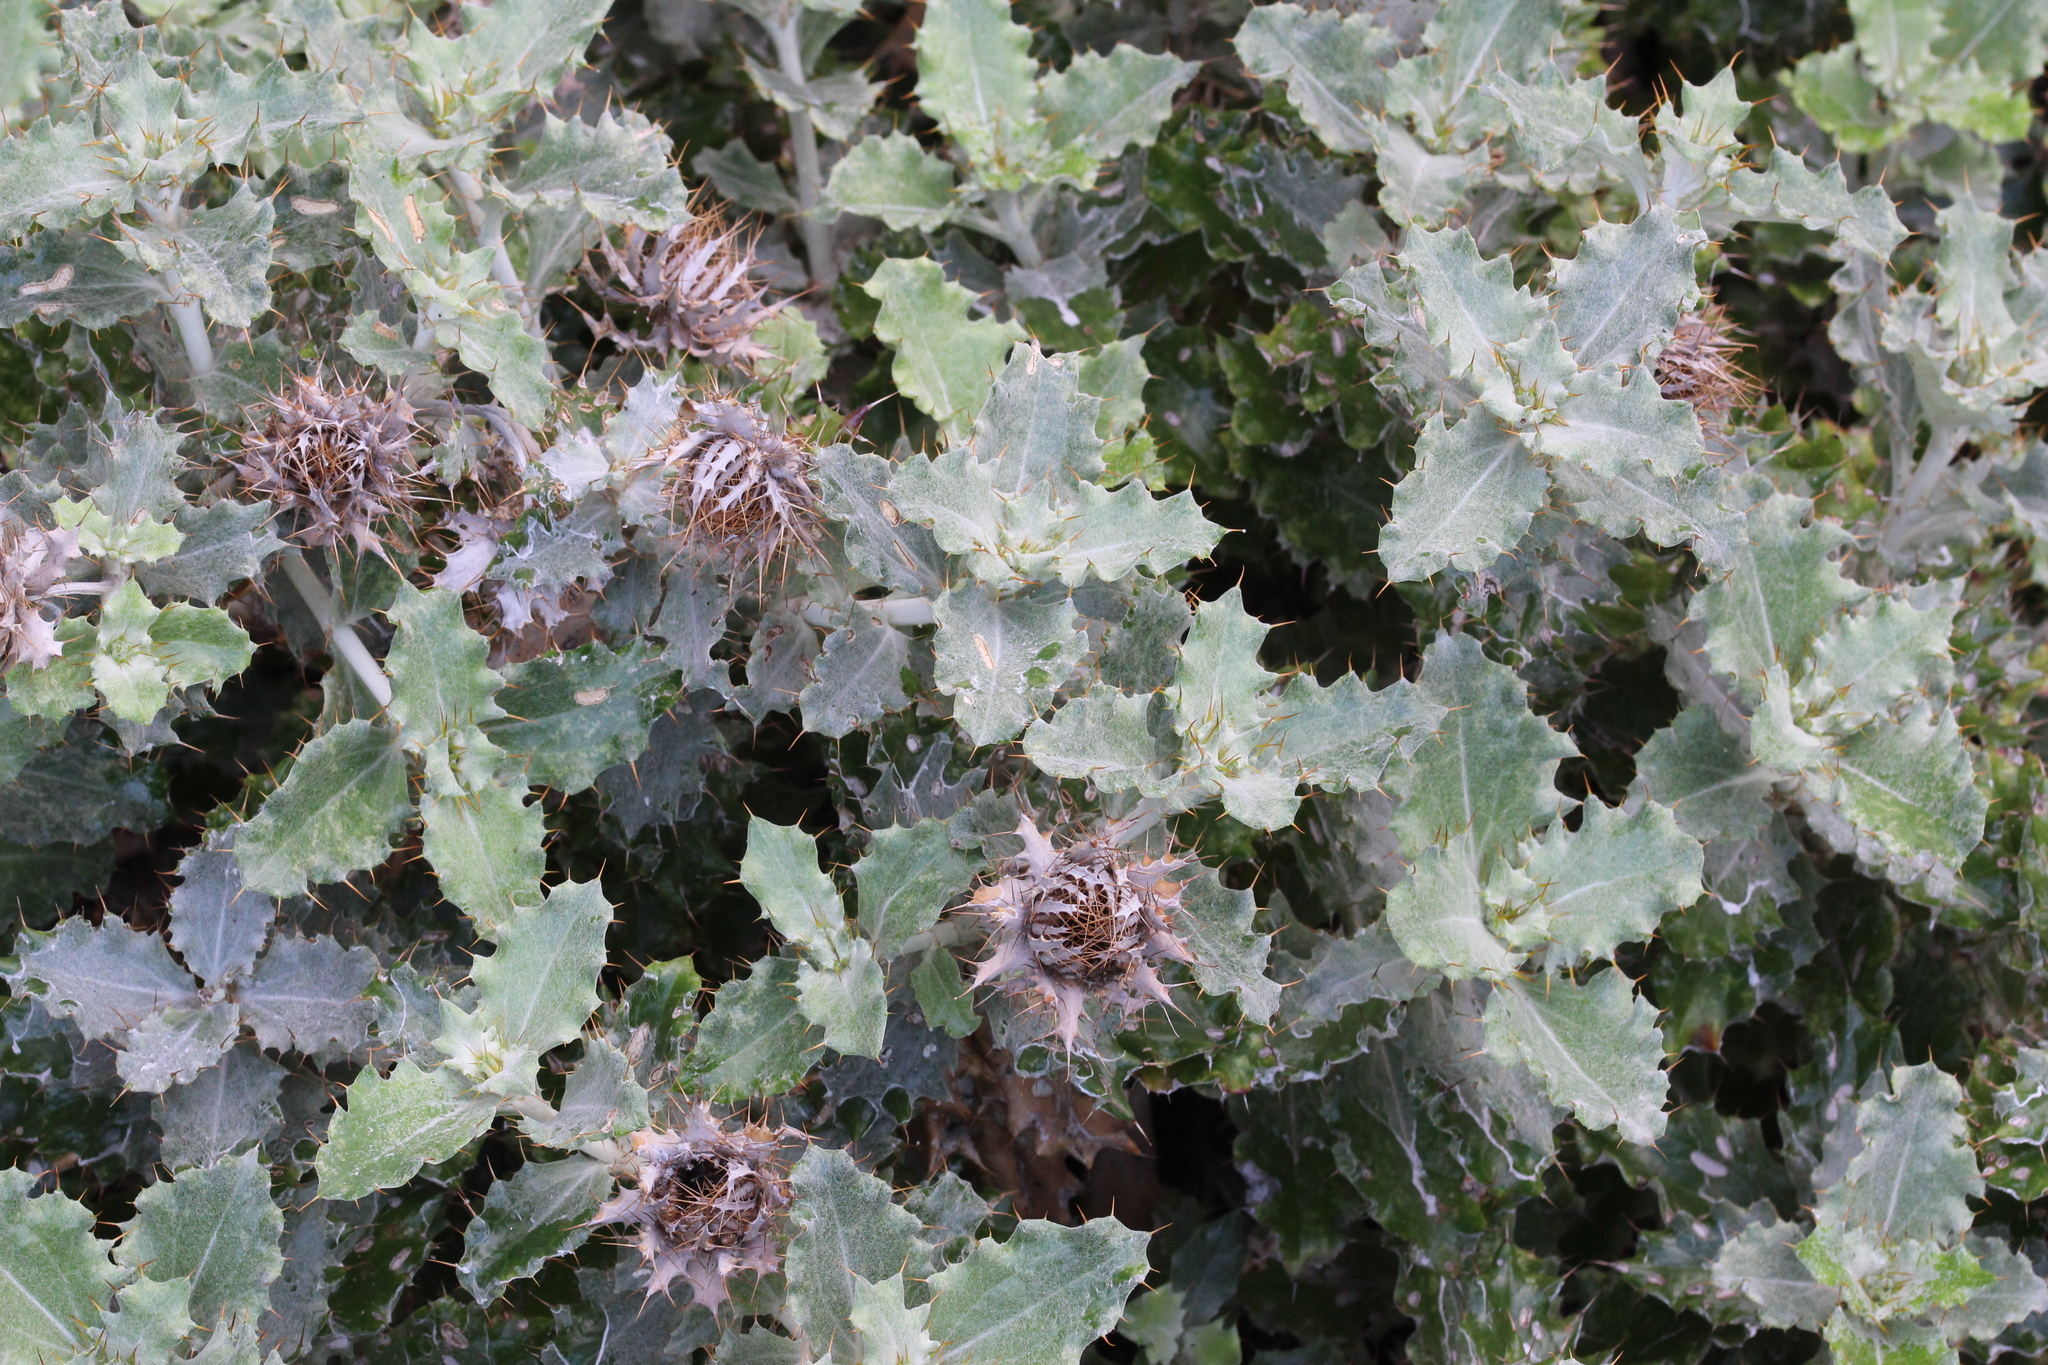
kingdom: Plantae
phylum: Tracheophyta
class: Magnoliopsida
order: Asterales
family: Asteraceae
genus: Berkheya
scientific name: Berkheya coriacea
